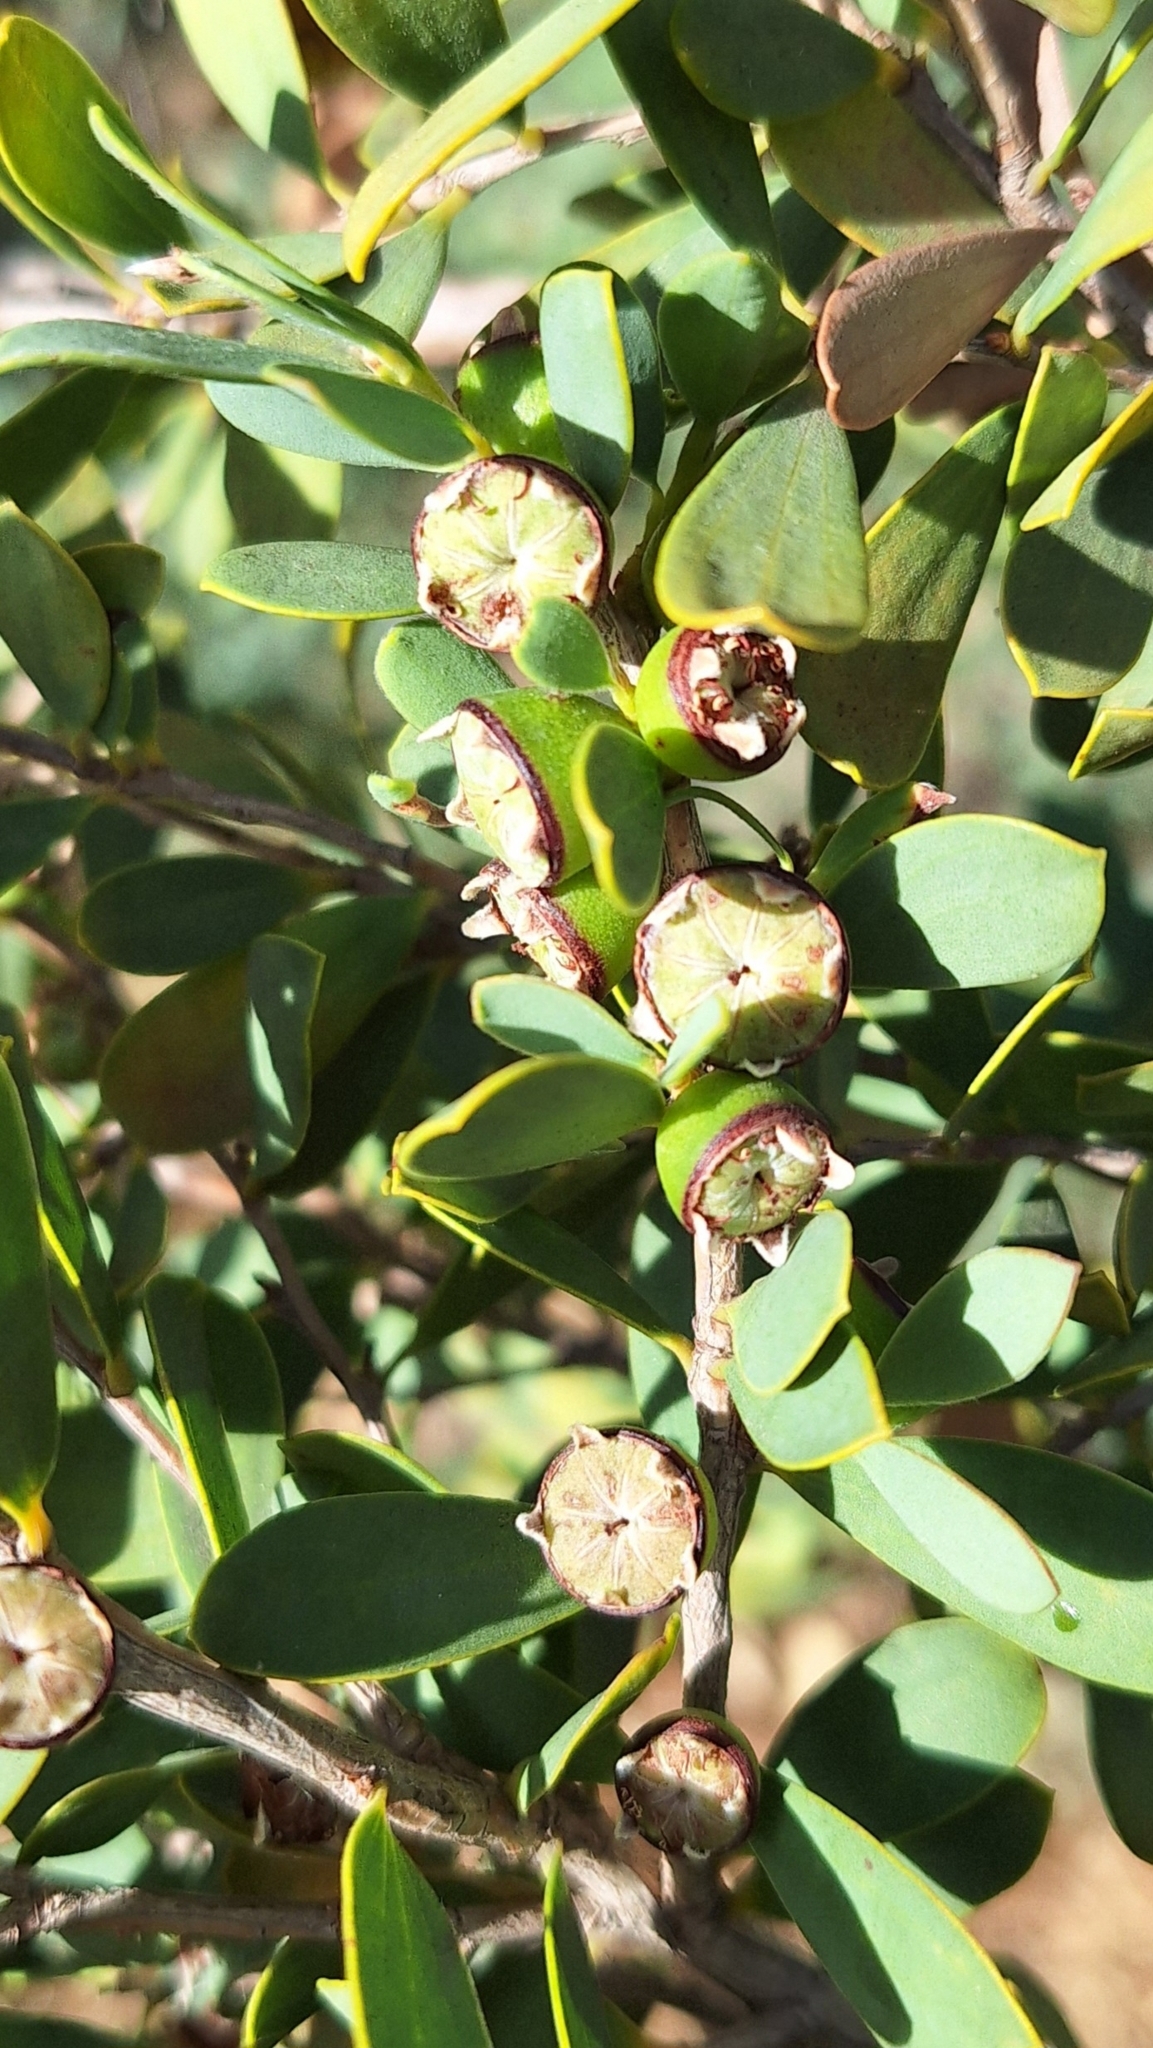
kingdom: Plantae
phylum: Tracheophyta
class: Magnoliopsida
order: Myrtales
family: Myrtaceae
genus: Leptospermum
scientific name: Leptospermum laevigatum
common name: Australian teatree
